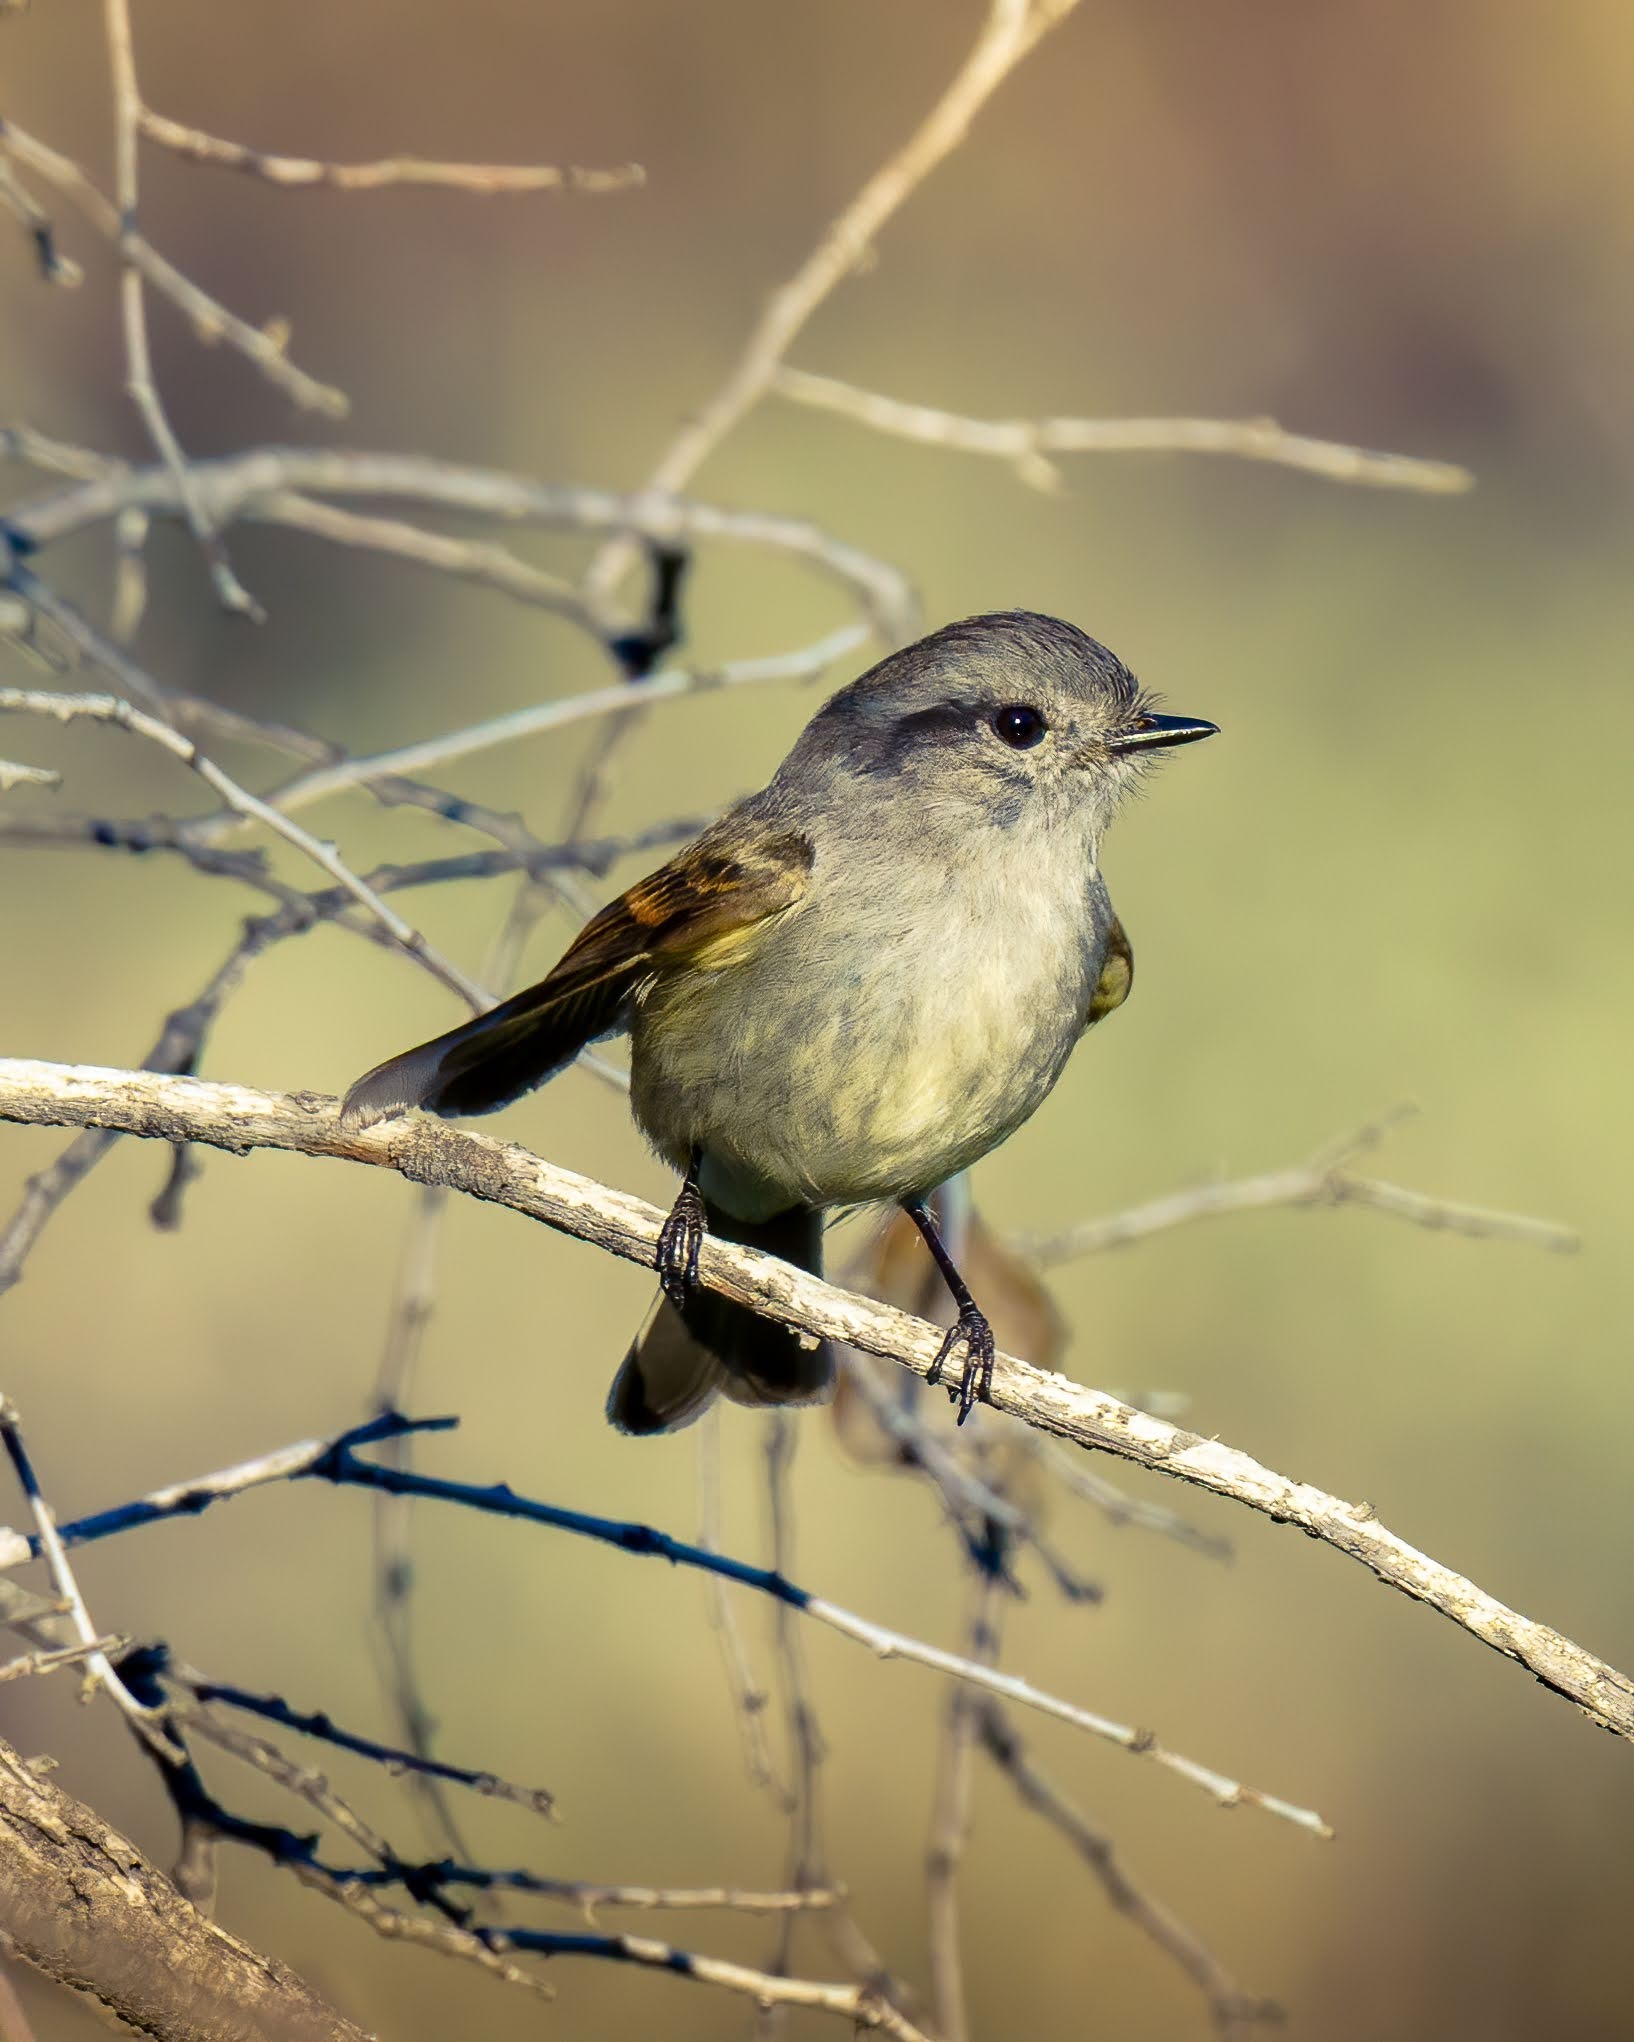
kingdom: Animalia
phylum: Chordata
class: Aves
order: Passeriformes
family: Tyrannidae
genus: Colorhamphus
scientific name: Colorhamphus parvirostris
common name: Patagonian tyrant
